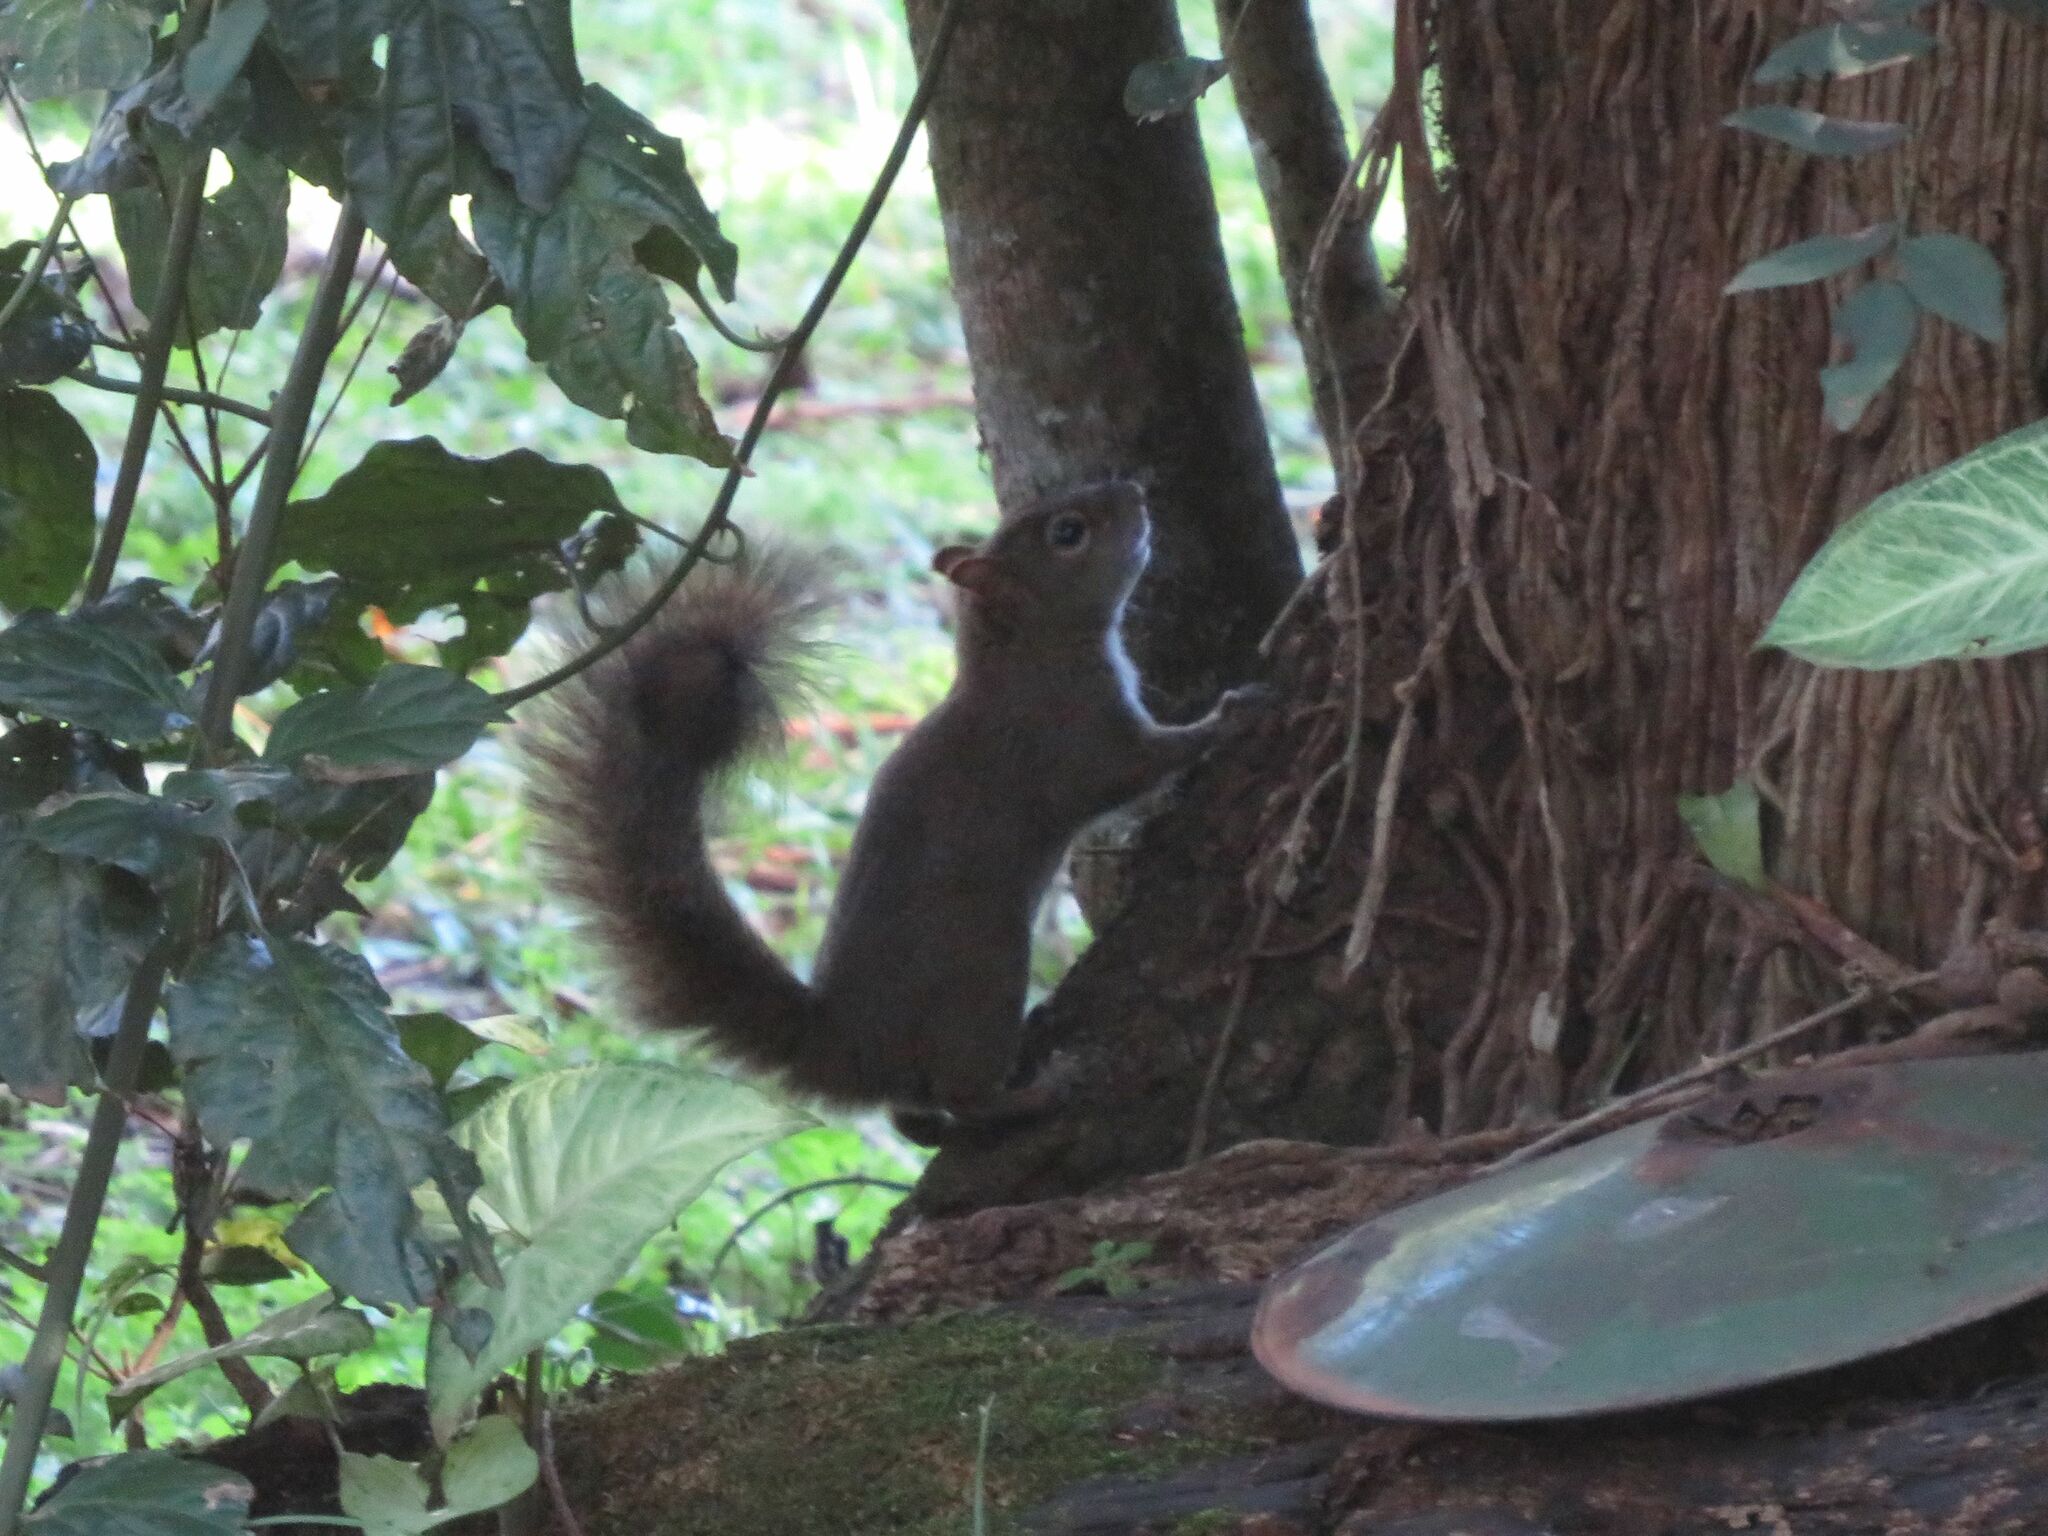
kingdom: Animalia
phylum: Chordata
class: Mammalia
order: Rodentia
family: Sciuridae
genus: Sciurus
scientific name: Sciurus aestuans
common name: Guianan squirrel
